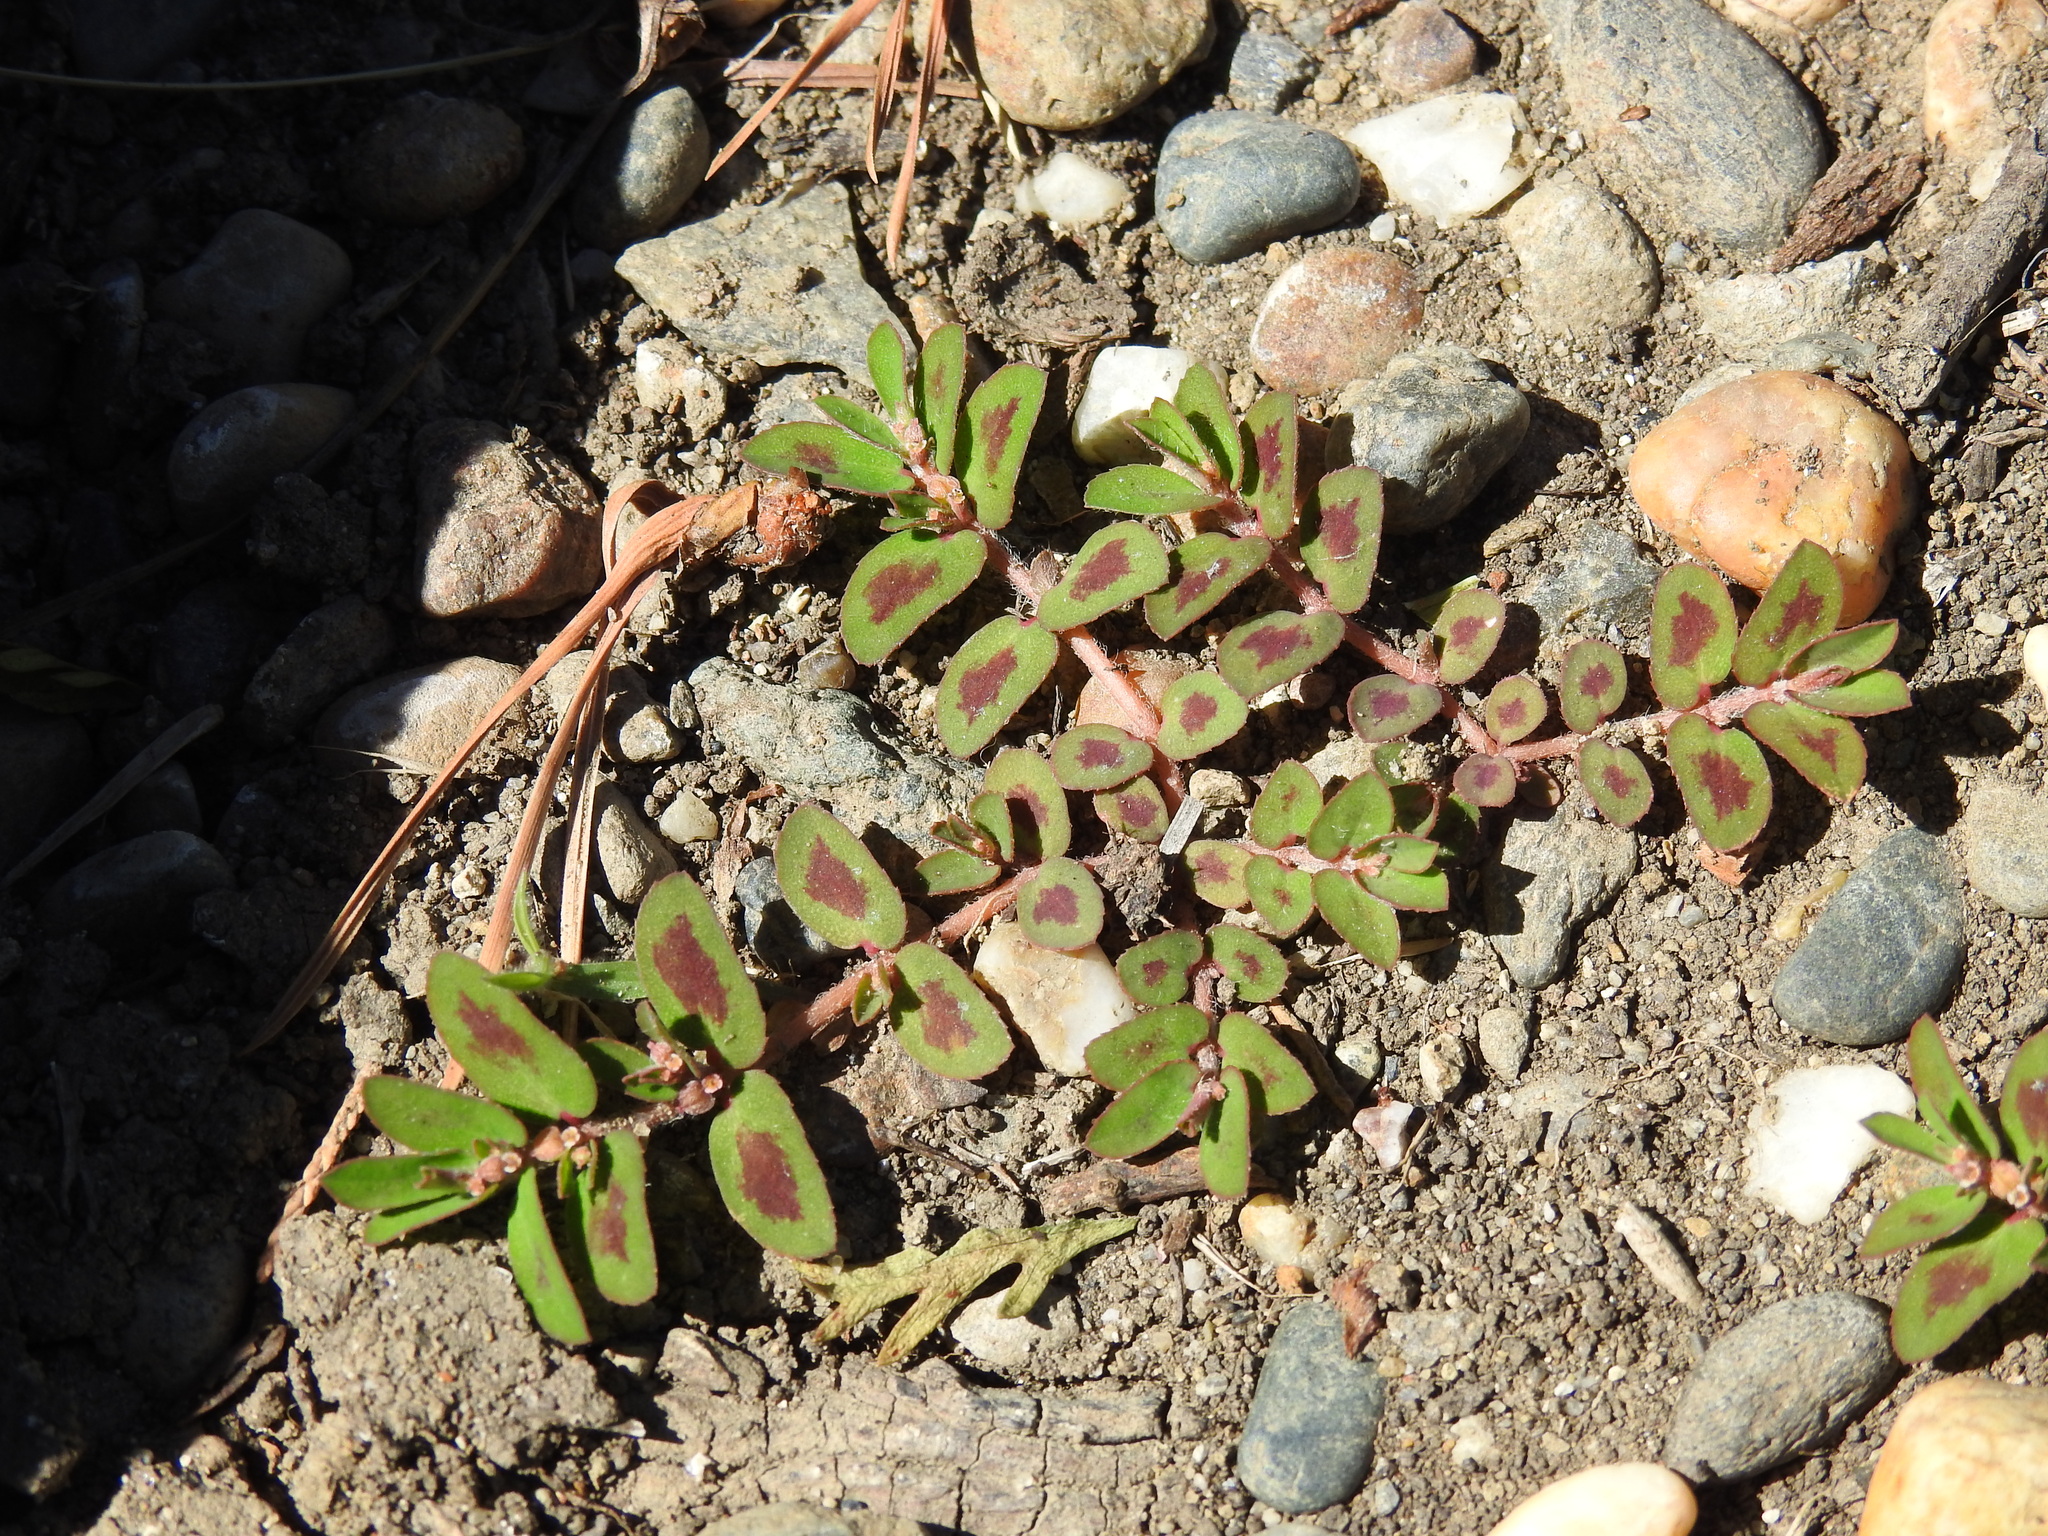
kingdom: Plantae
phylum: Tracheophyta
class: Magnoliopsida
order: Malpighiales
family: Euphorbiaceae
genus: Euphorbia
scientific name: Euphorbia maculata
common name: Spotted spurge
